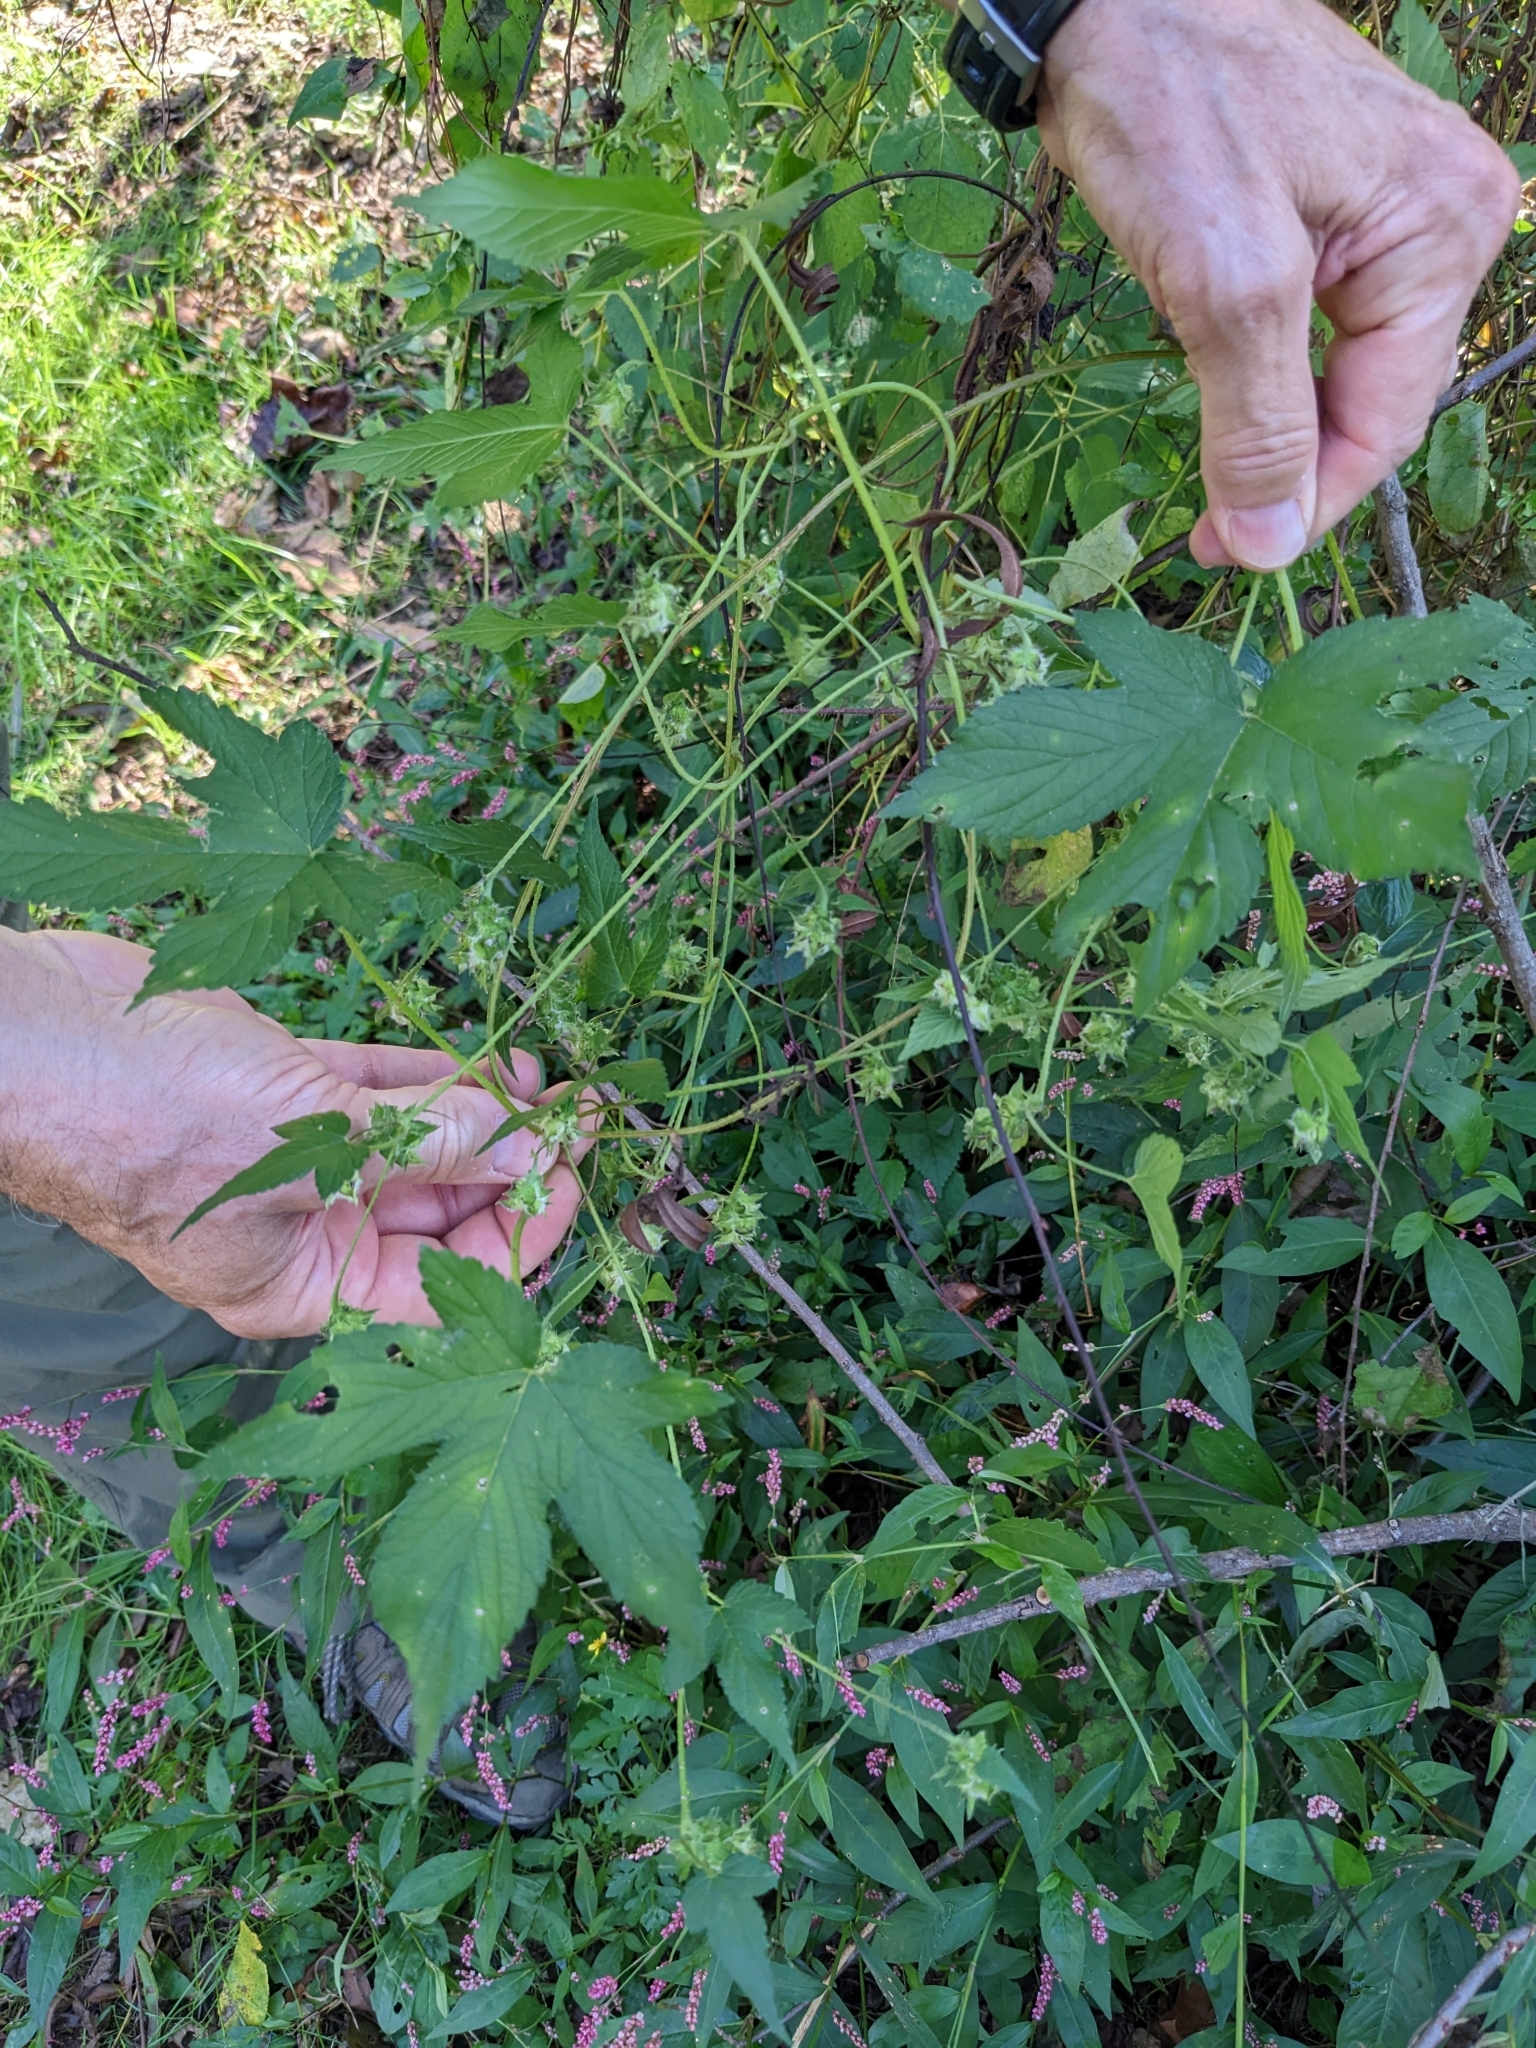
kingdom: Plantae
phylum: Tracheophyta
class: Magnoliopsida
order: Rosales
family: Cannabaceae
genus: Humulus
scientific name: Humulus scandens
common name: Japanese hop
